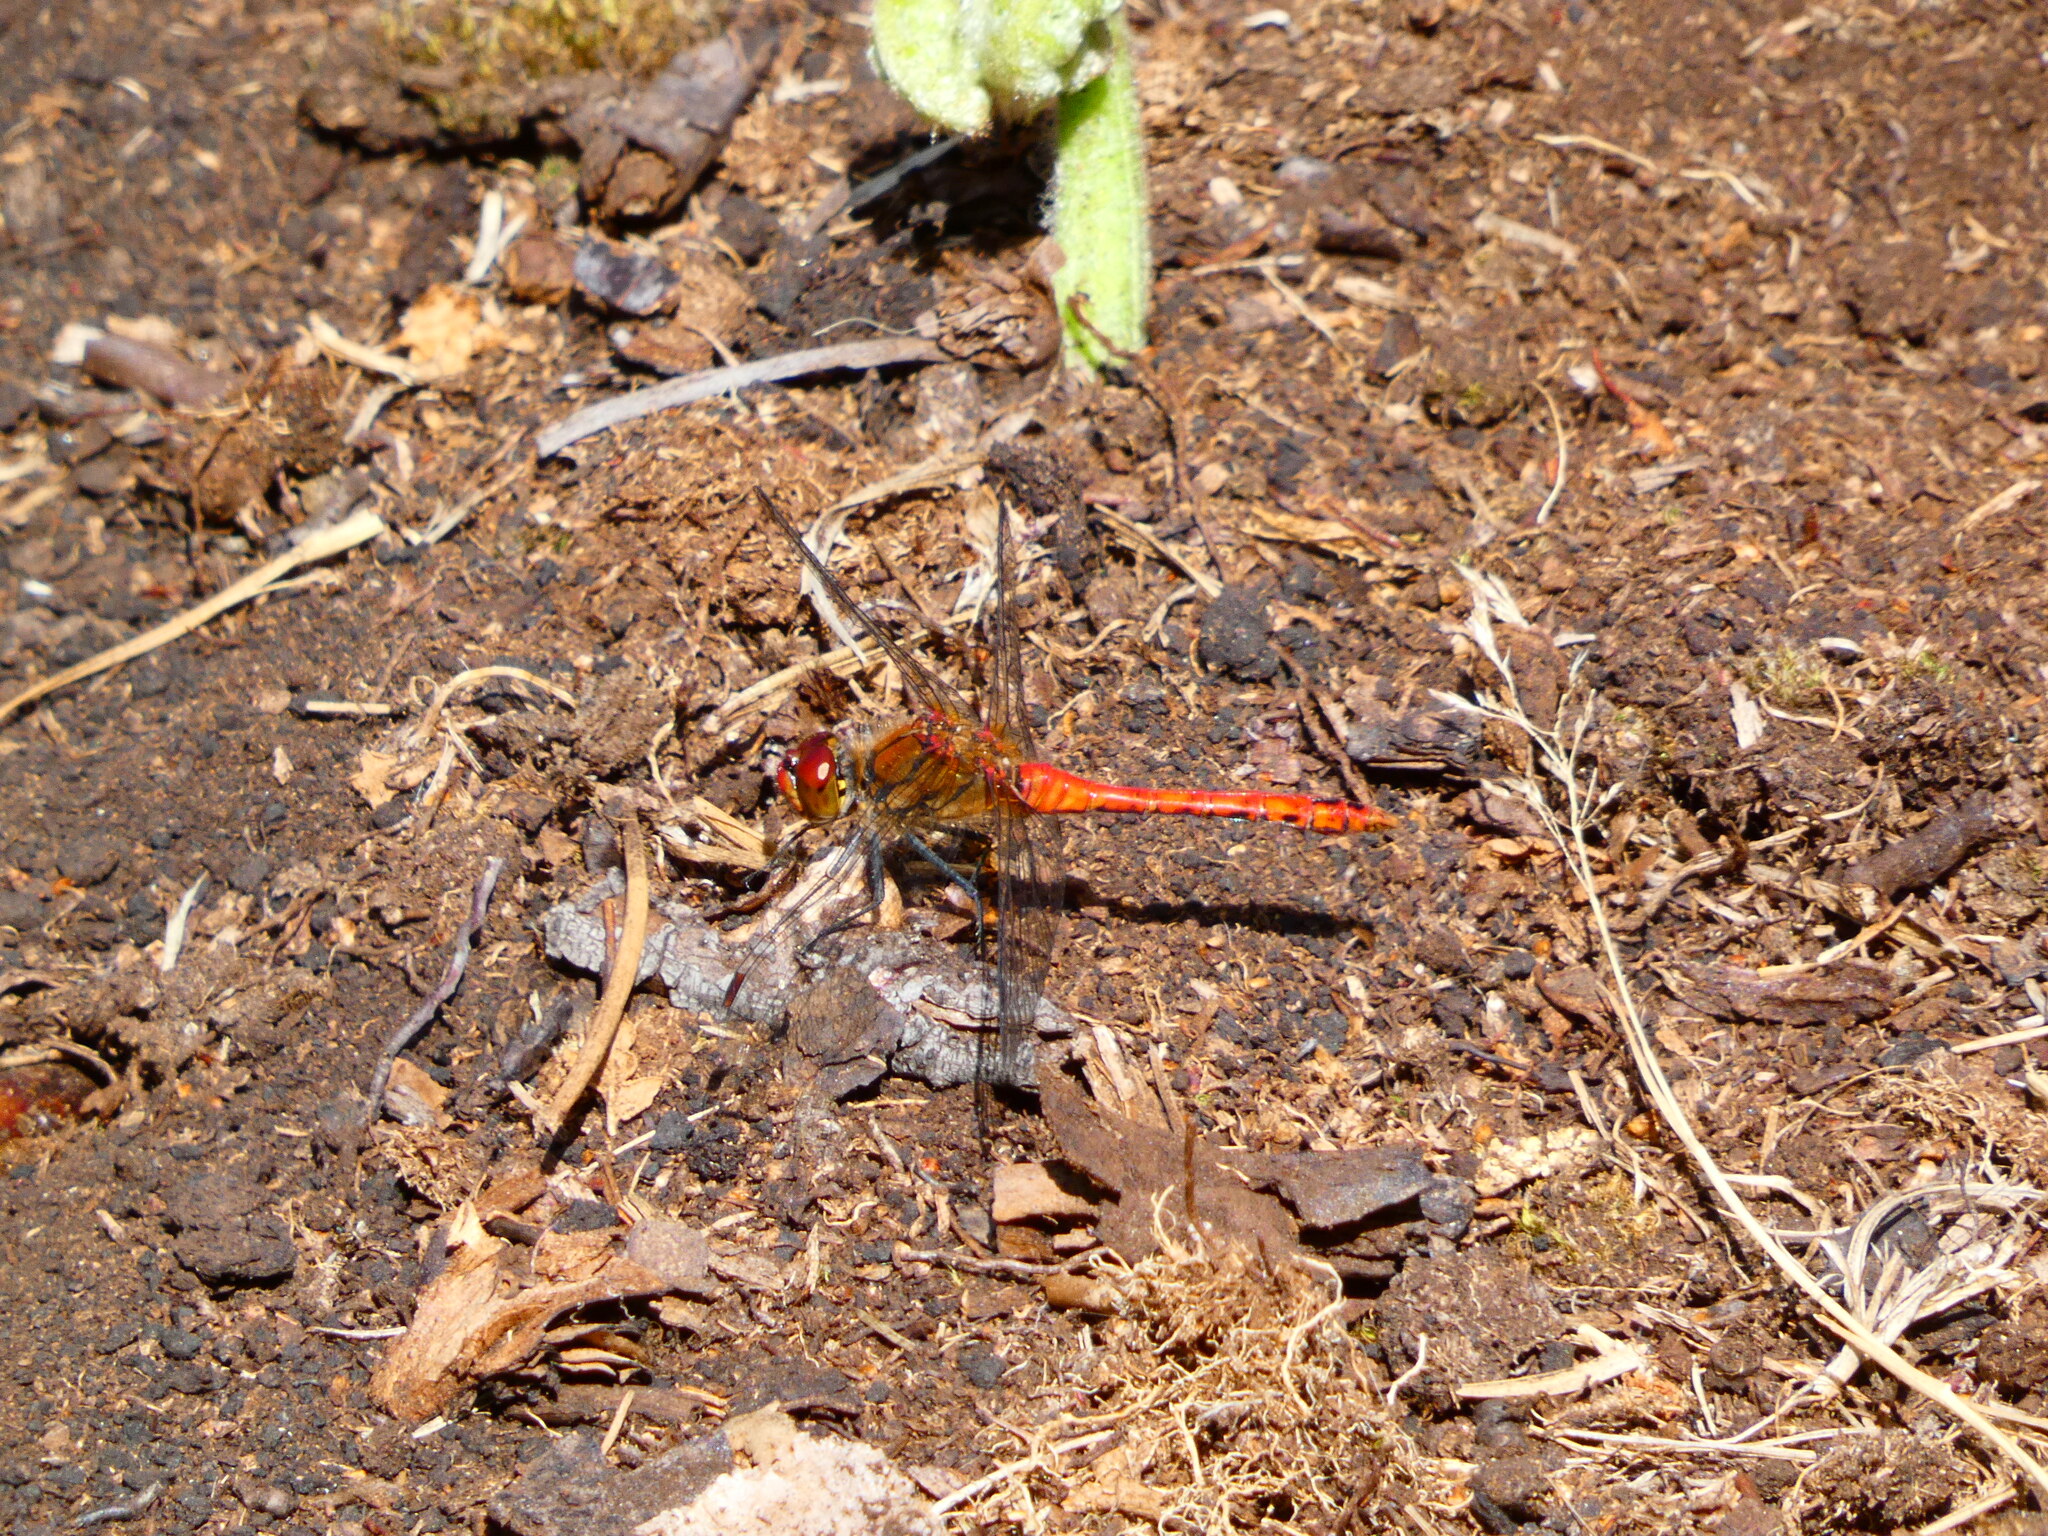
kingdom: Animalia
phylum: Arthropoda
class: Insecta
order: Odonata
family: Libellulidae
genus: Sympetrum
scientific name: Sympetrum sanguineum
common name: Ruddy darter
